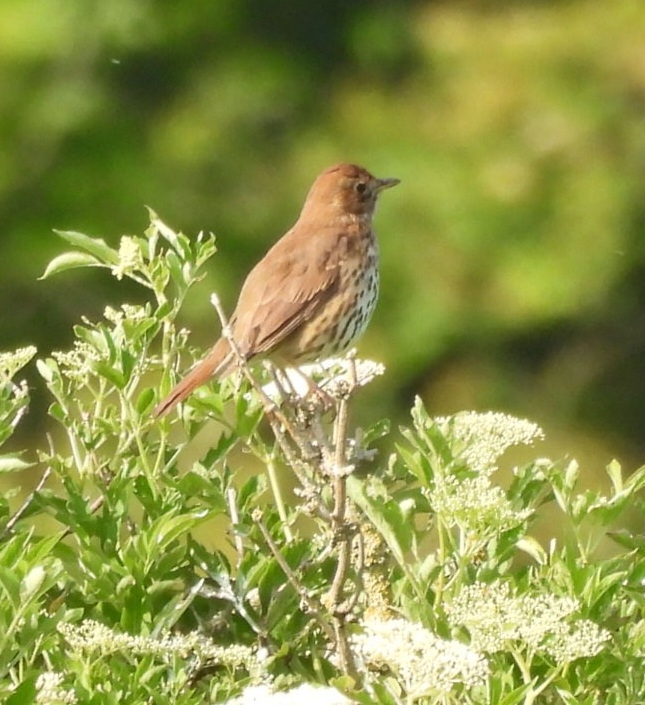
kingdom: Animalia
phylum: Chordata
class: Aves
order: Passeriformes
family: Turdidae
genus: Turdus
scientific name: Turdus philomelos
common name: Song thrush
